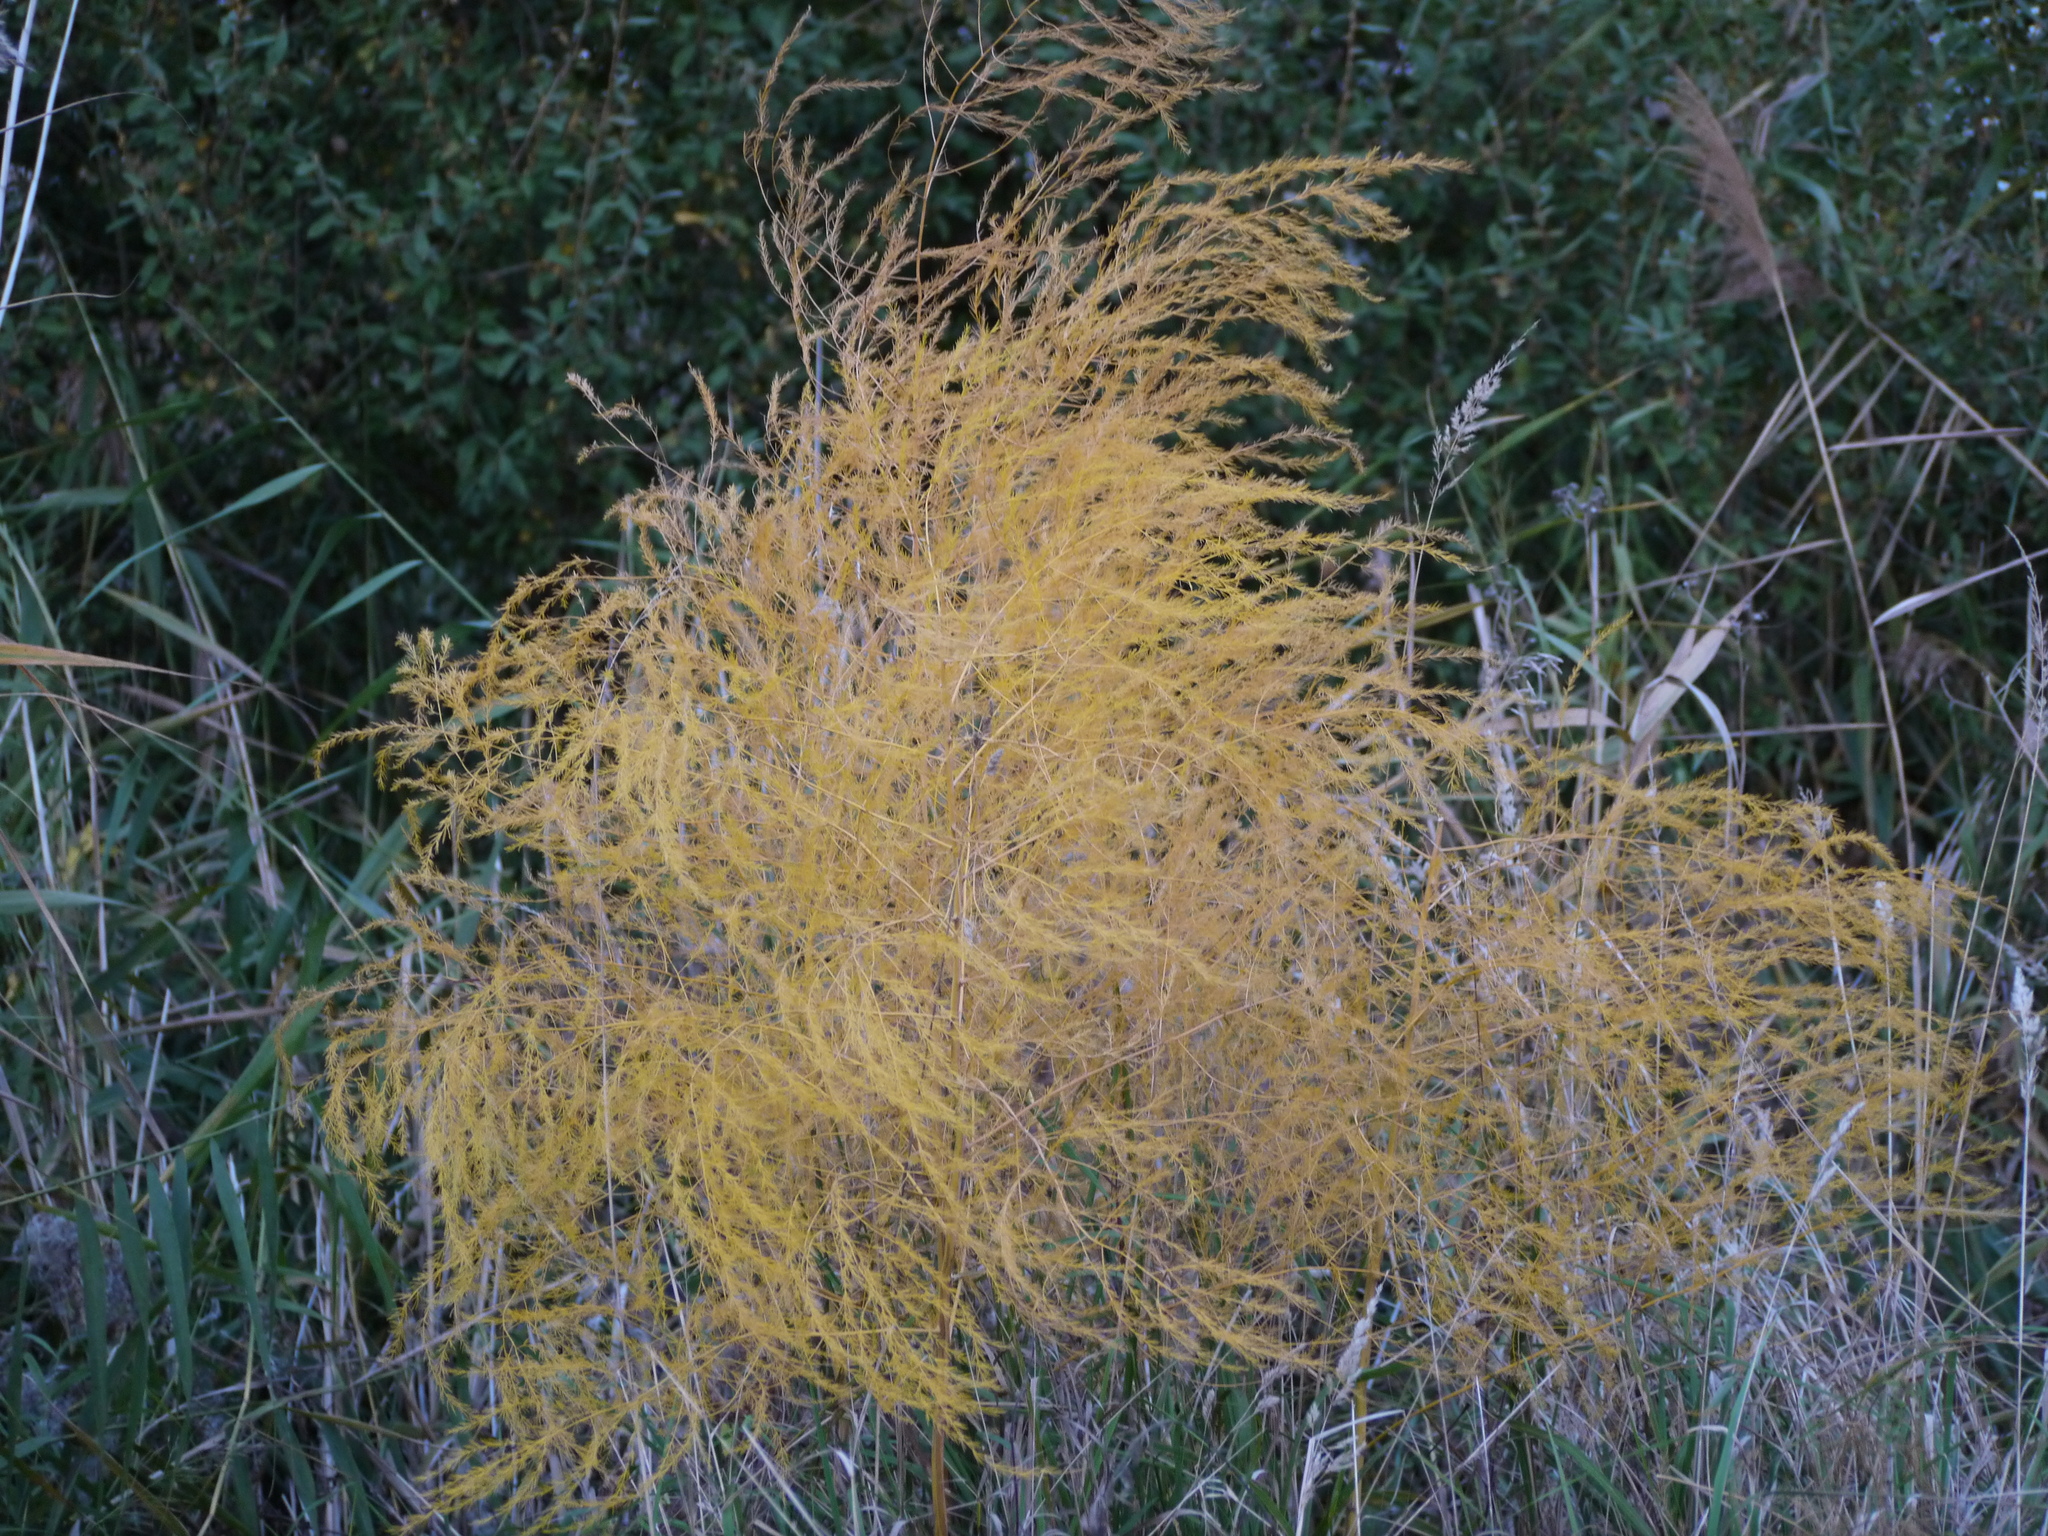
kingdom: Plantae
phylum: Tracheophyta
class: Liliopsida
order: Asparagales
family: Asparagaceae
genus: Asparagus
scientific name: Asparagus officinalis
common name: Garden asparagus
